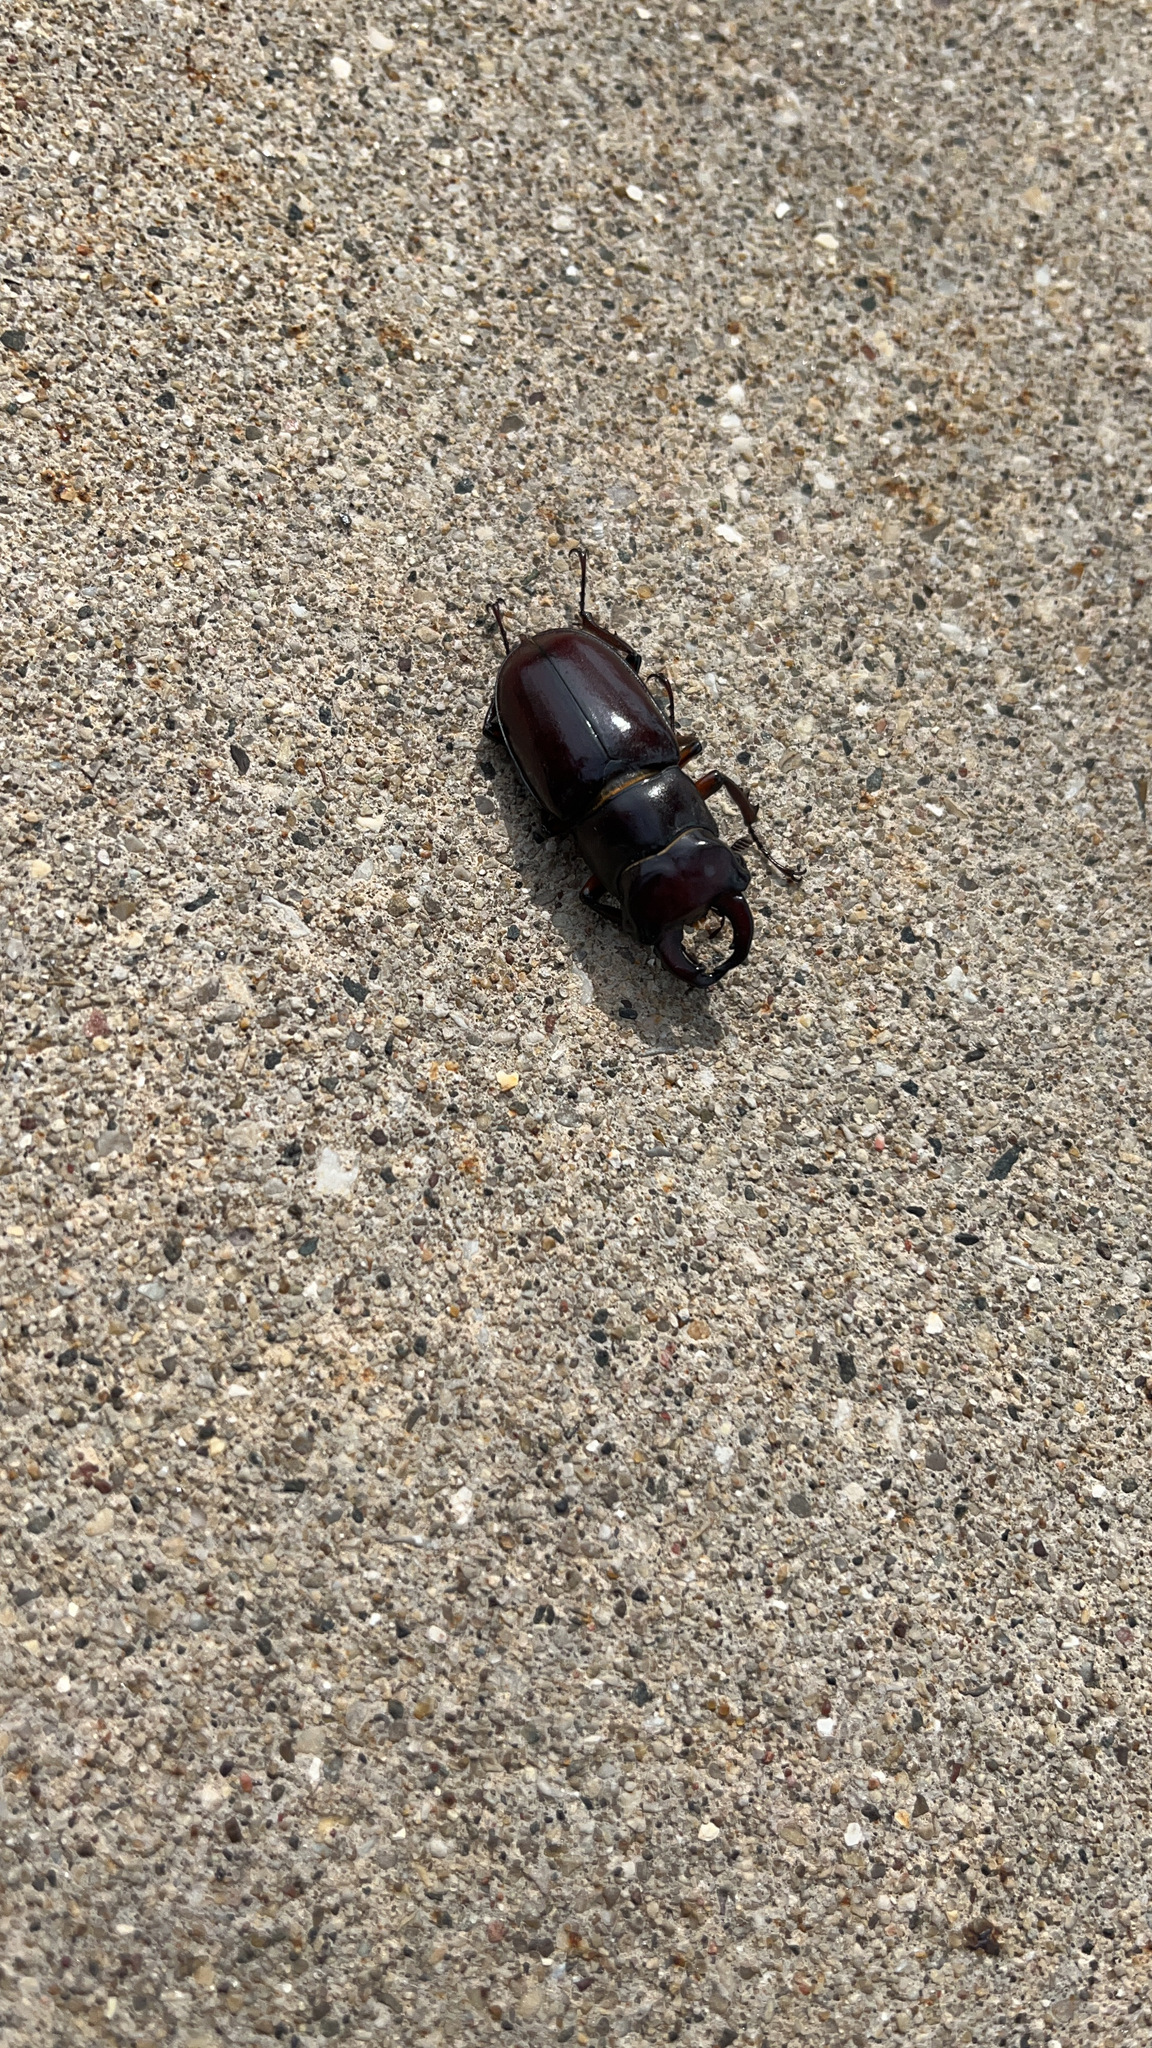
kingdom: Animalia
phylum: Arthropoda
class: Insecta
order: Coleoptera
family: Lucanidae
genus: Lucanus
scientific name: Lucanus capreolus
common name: Stag beetle
